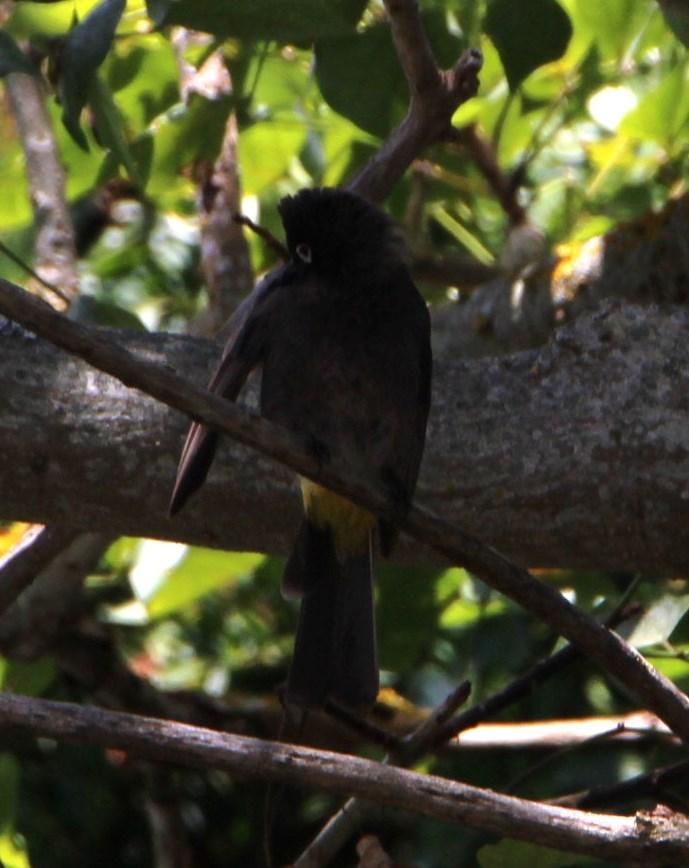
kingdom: Animalia
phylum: Chordata
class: Aves
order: Passeriformes
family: Pycnonotidae
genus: Pycnonotus
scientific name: Pycnonotus capensis
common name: Cape bulbul
